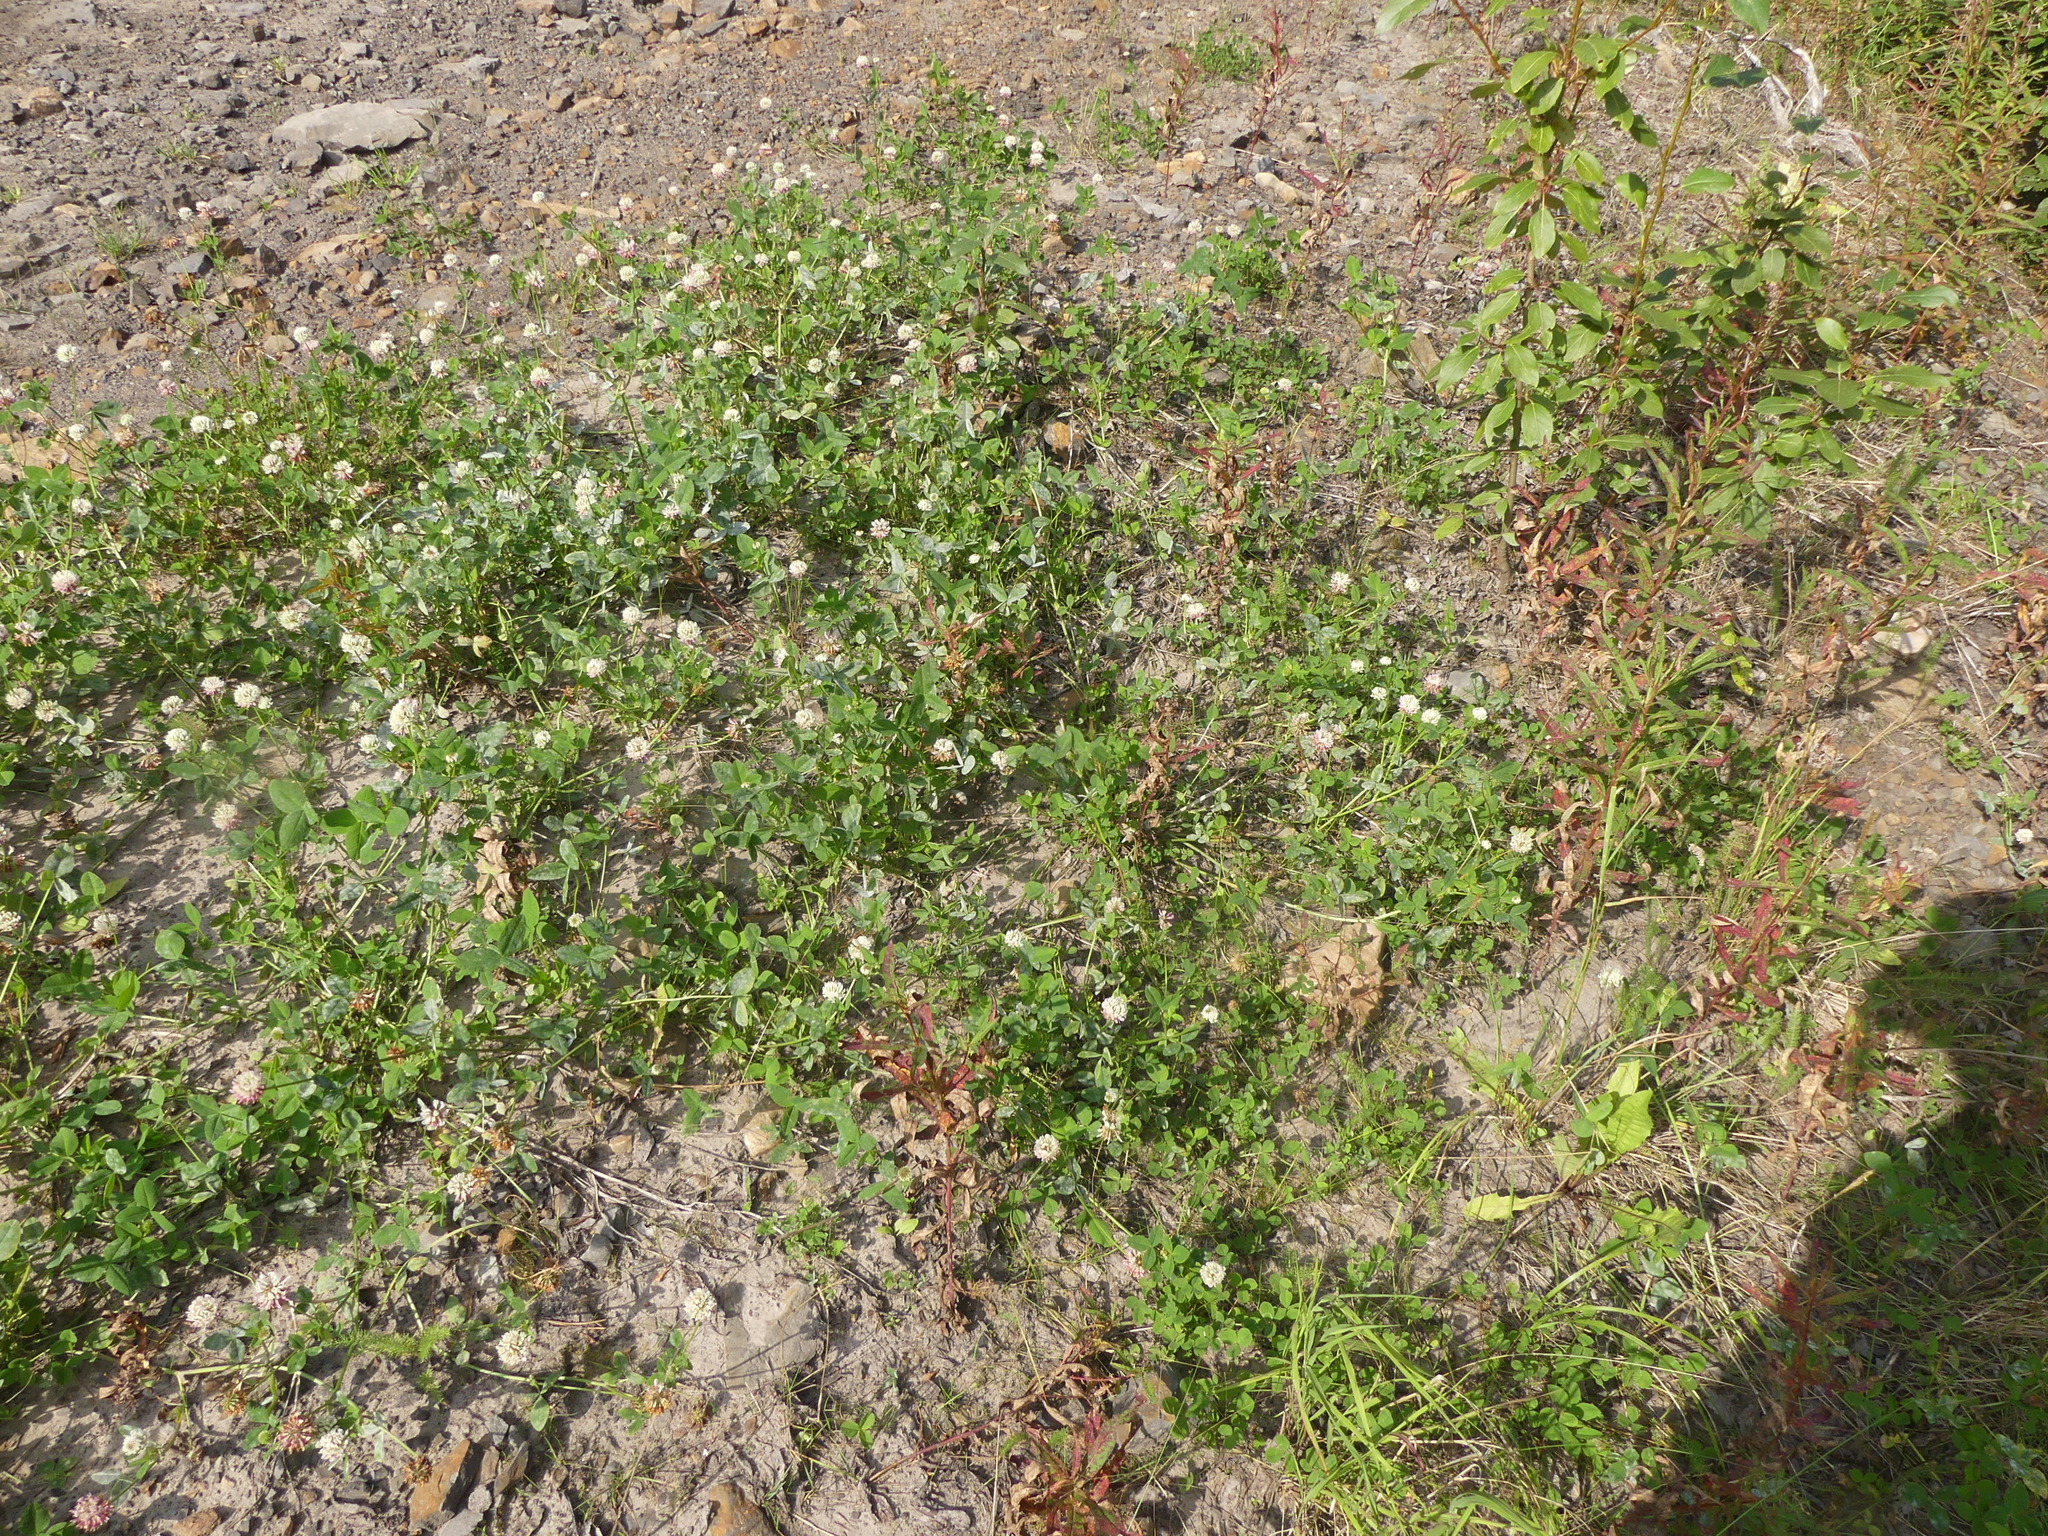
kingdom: Plantae
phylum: Tracheophyta
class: Magnoliopsida
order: Fabales
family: Fabaceae
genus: Trifolium
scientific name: Trifolium hybridum
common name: Alsike clover
